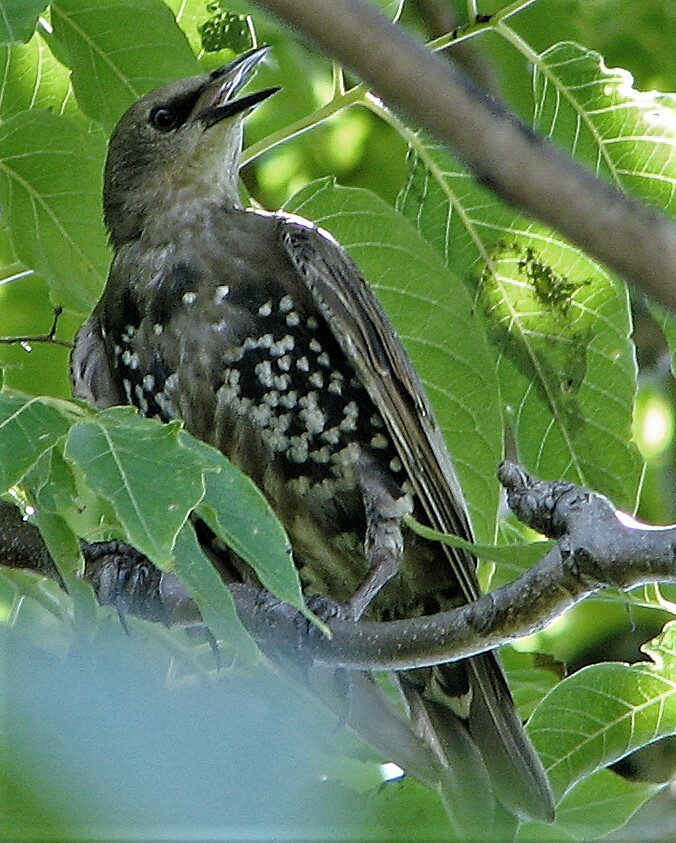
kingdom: Animalia
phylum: Chordata
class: Aves
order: Passeriformes
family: Sturnidae
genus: Sturnus
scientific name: Sturnus vulgaris
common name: Common starling
